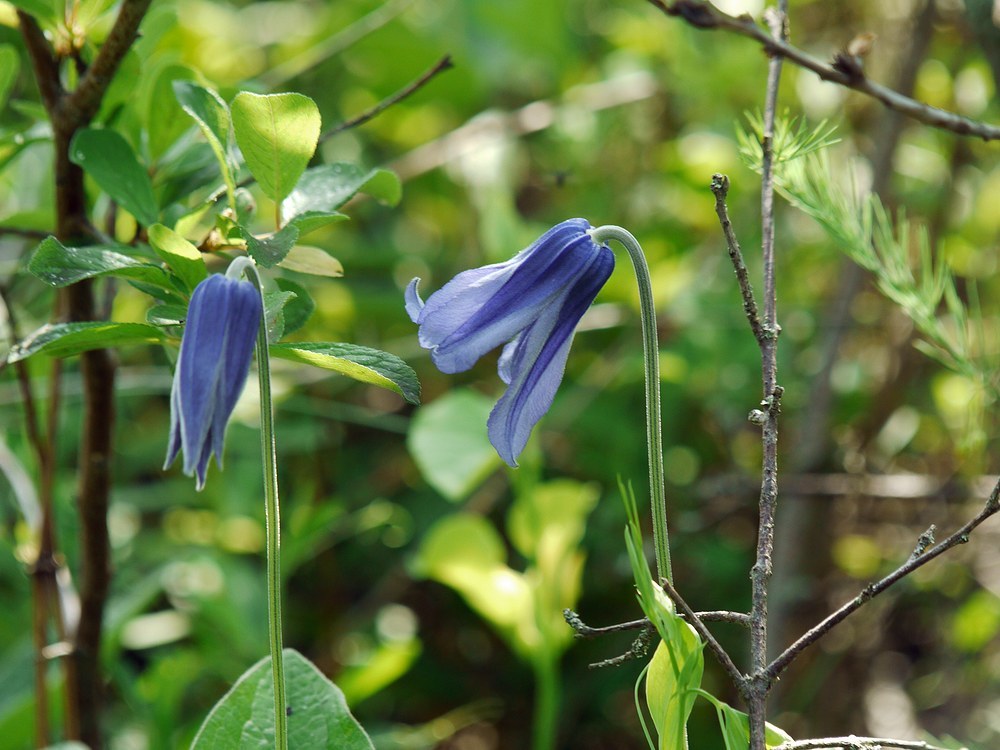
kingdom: Plantae
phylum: Tracheophyta
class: Magnoliopsida
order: Ranunculales
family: Ranunculaceae
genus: Clematis
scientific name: Clematis integrifolia
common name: Solitary clematis
